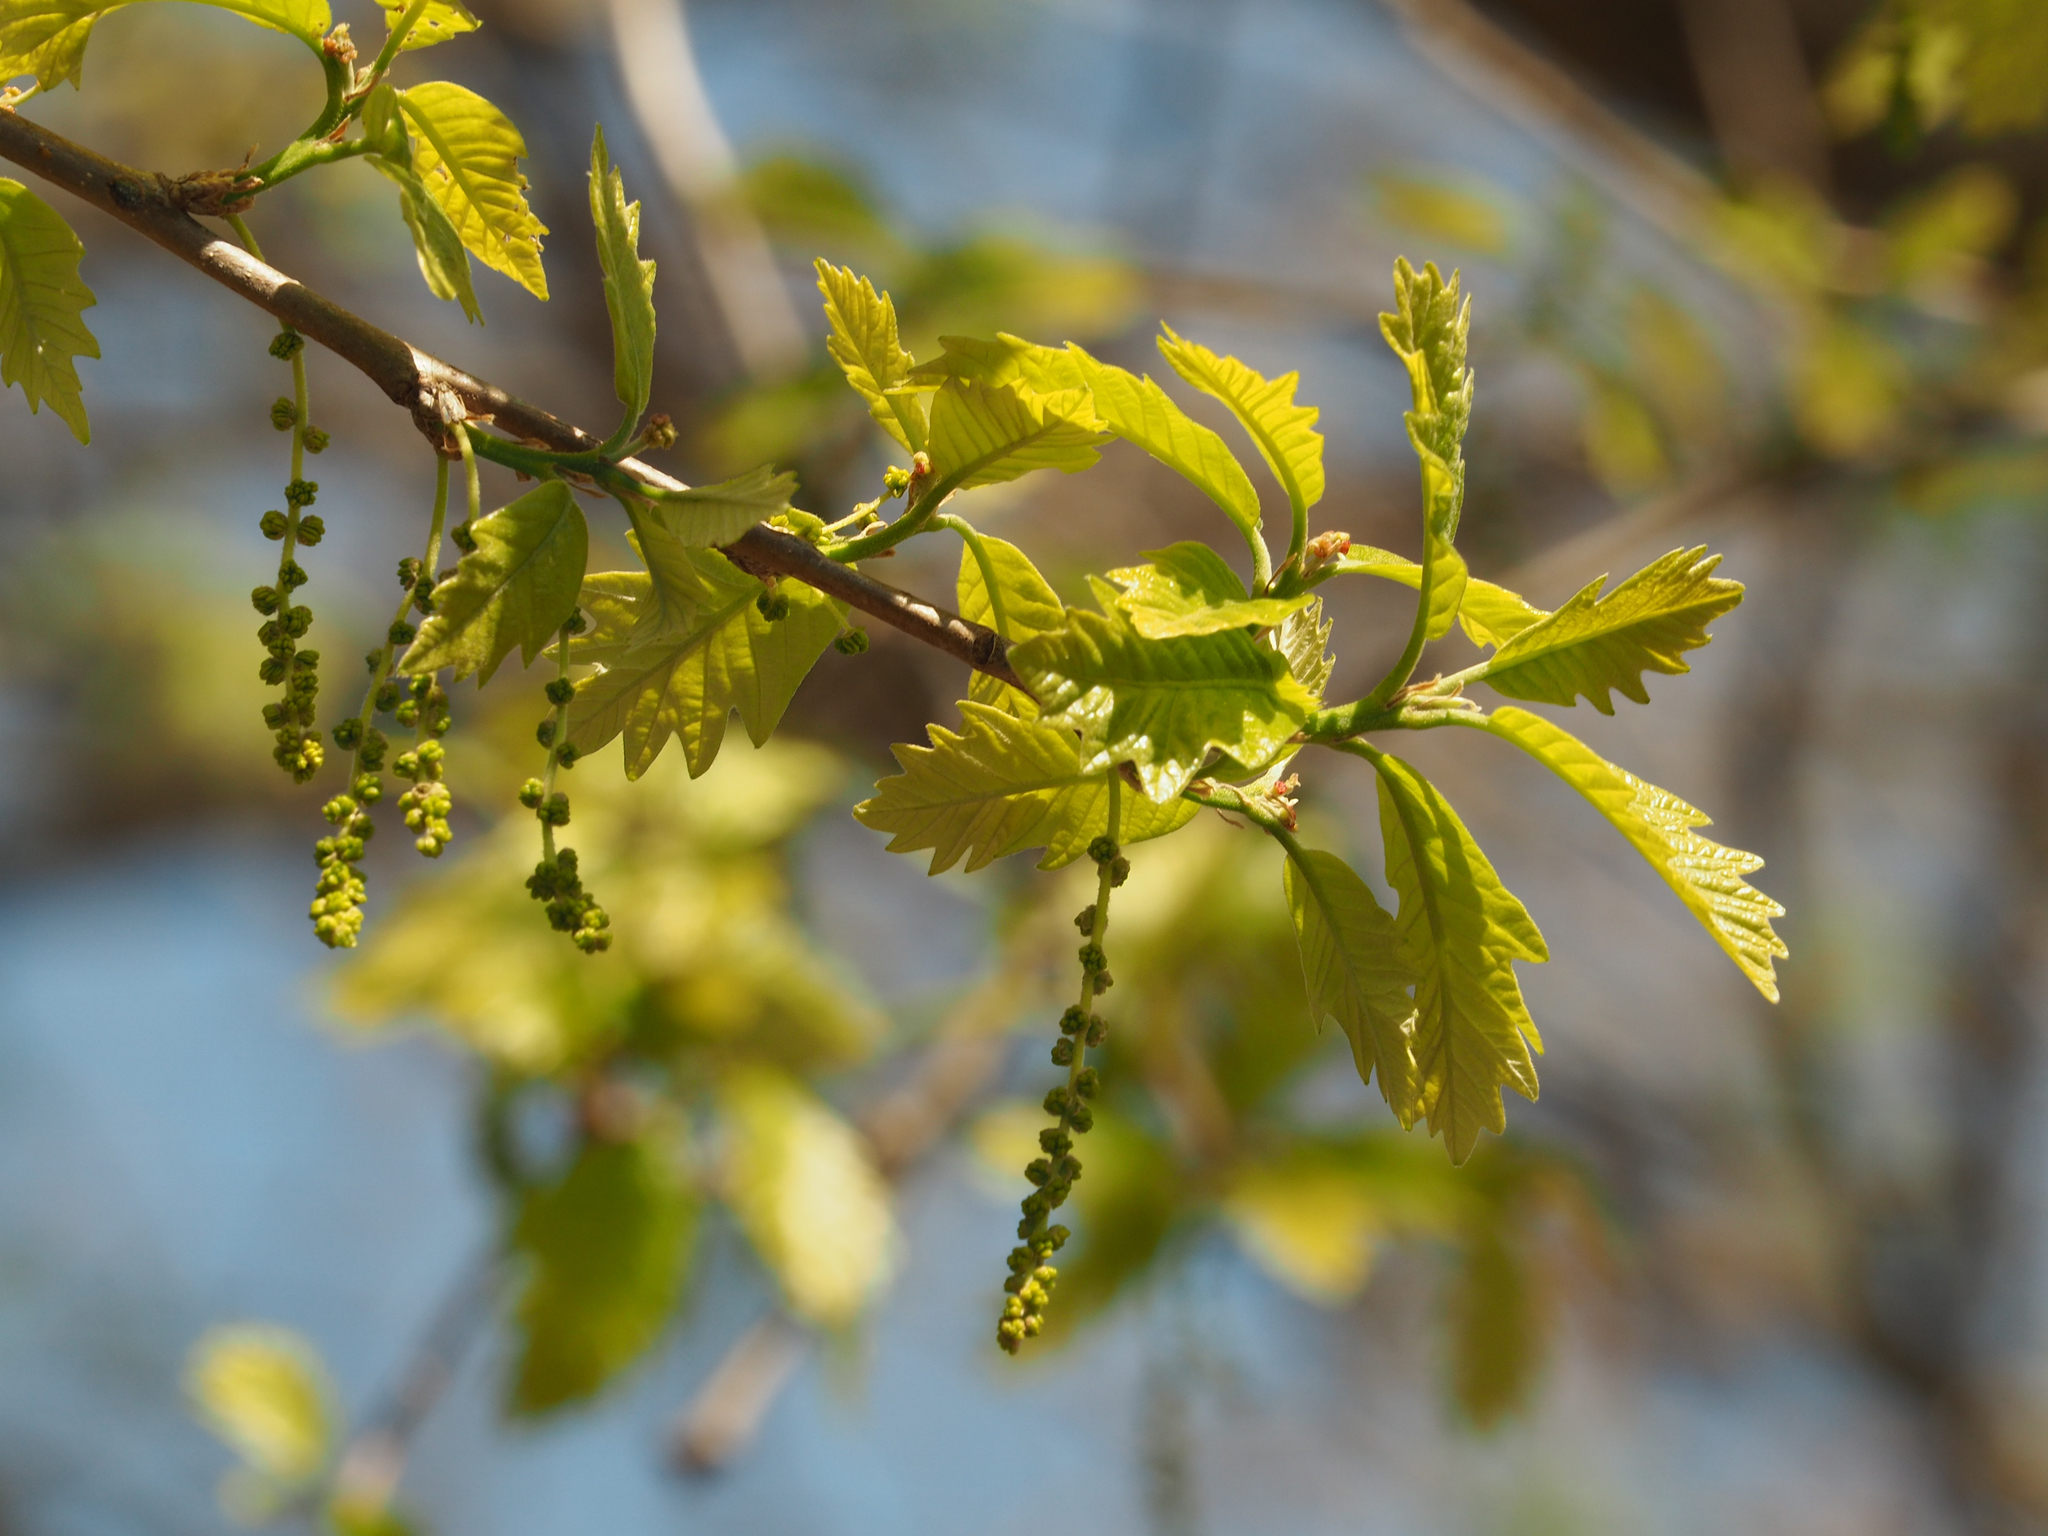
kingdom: Plantae
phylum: Tracheophyta
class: Magnoliopsida
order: Fagales
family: Fagaceae
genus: Quercus
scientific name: Quercus bicolor
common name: Swamp white oak
